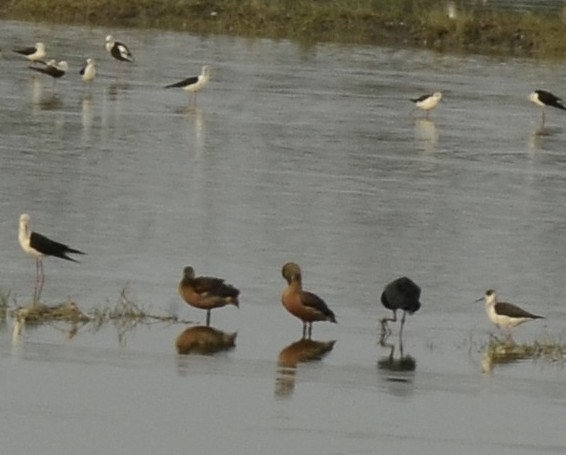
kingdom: Animalia
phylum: Chordata
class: Aves
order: Anseriformes
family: Anatidae
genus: Dendrocygna
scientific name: Dendrocygna javanica
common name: Lesser whistling-duck
